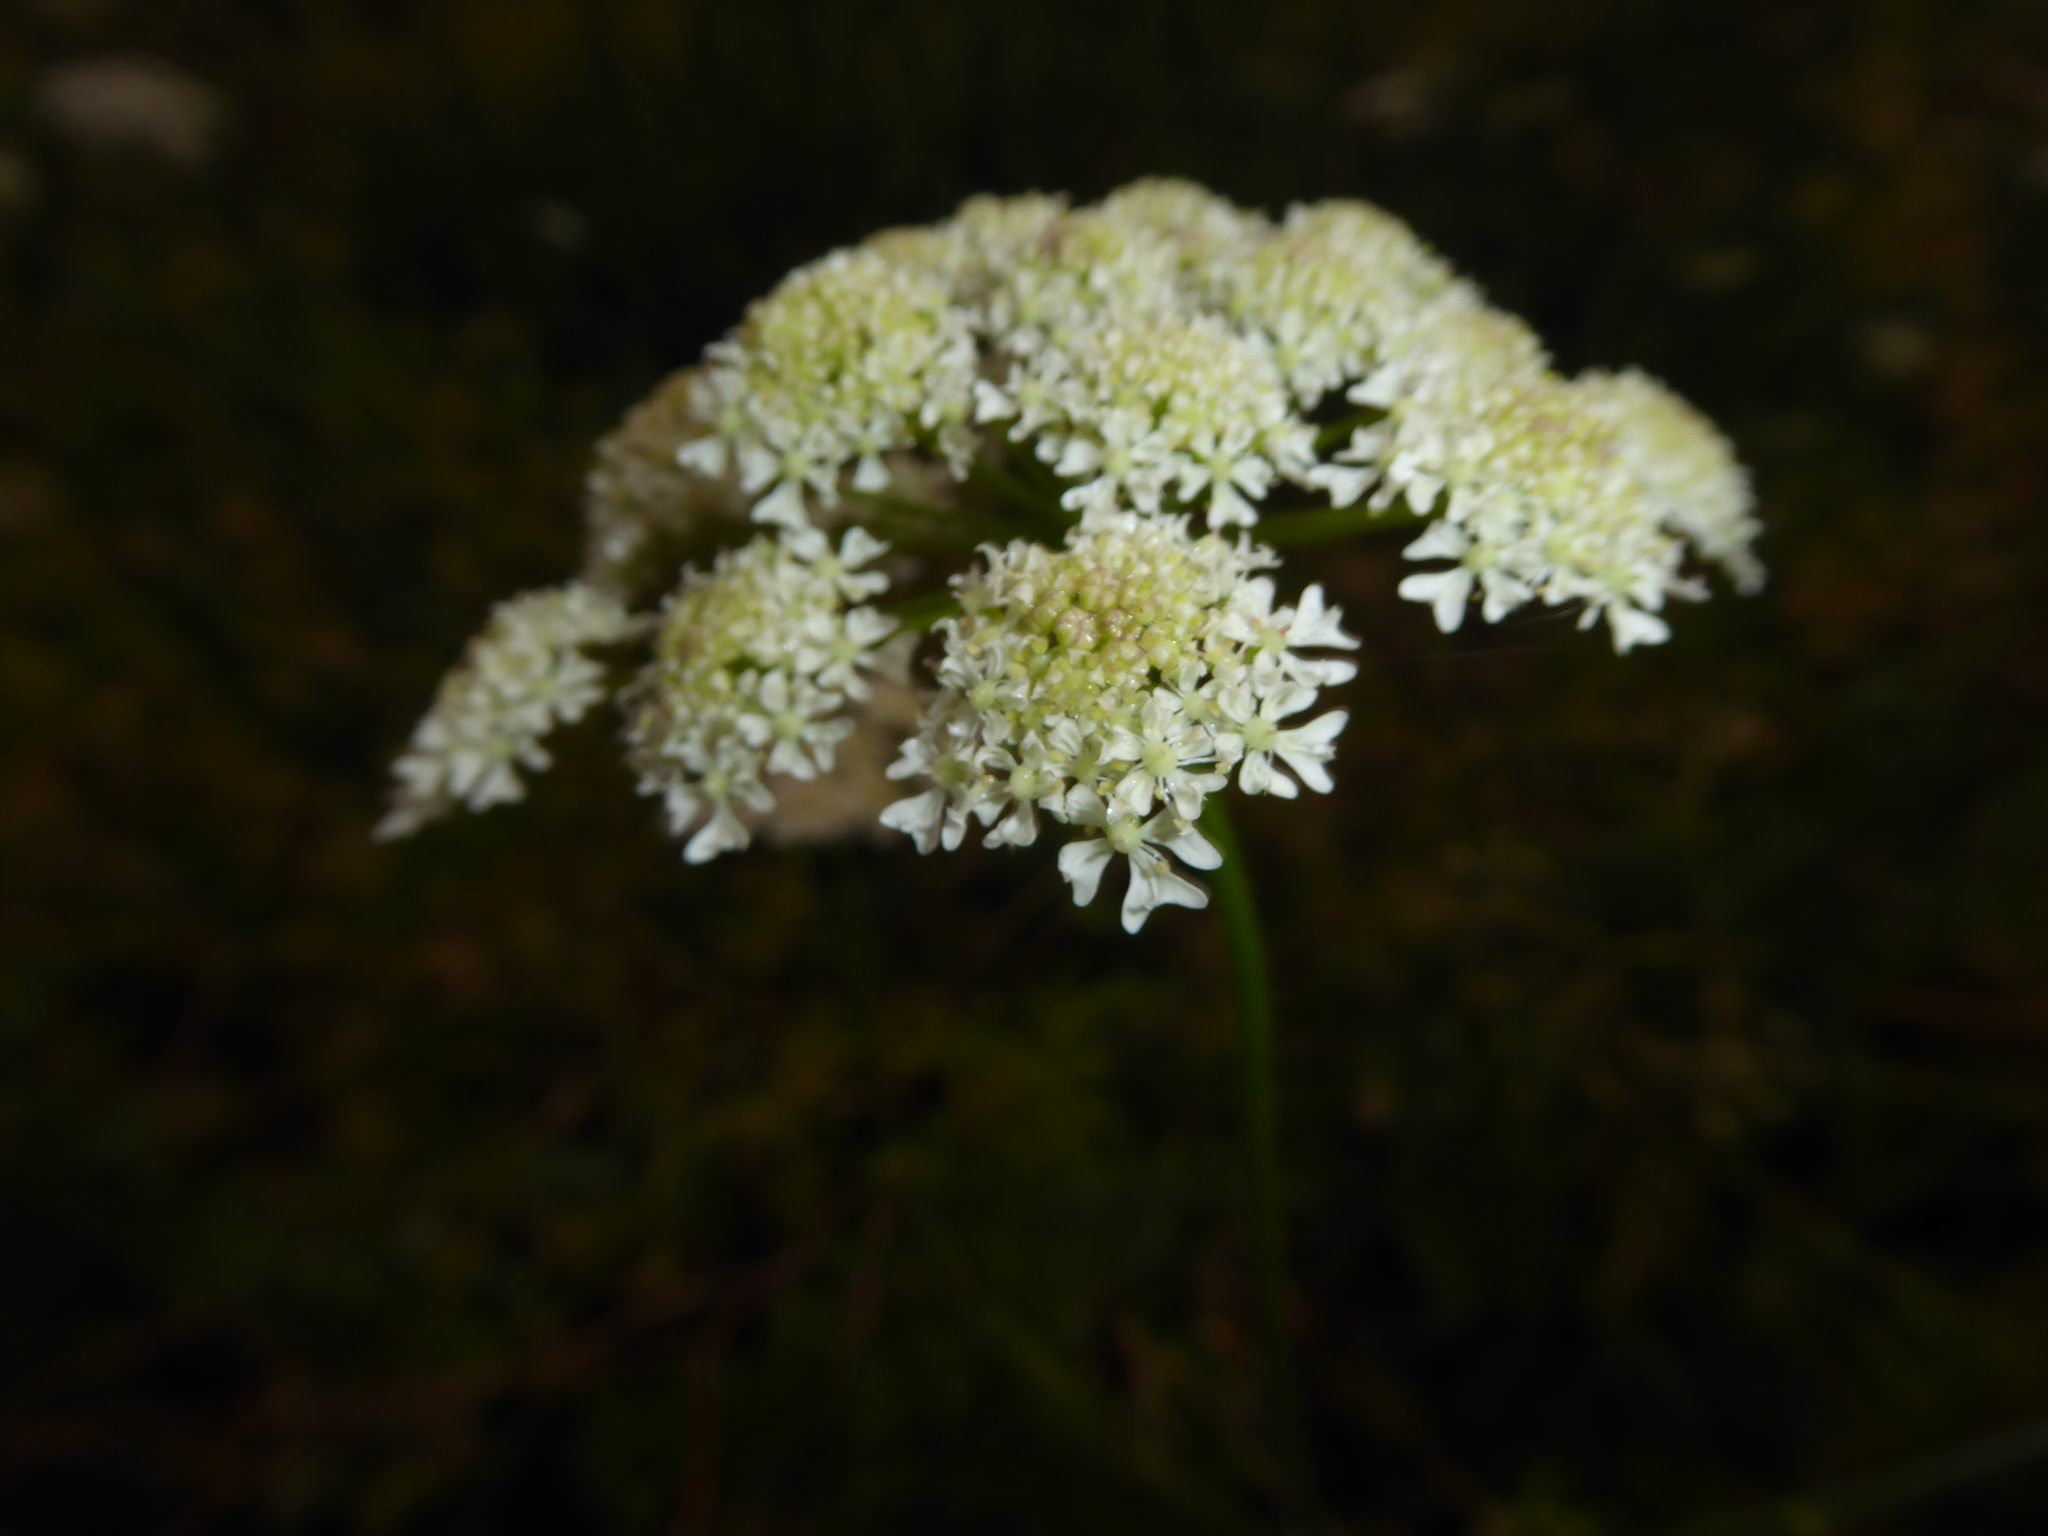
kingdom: Plantae
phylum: Tracheophyta
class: Magnoliopsida
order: Apiales
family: Apiaceae
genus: Heracleum
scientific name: Heracleum sphondylium
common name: Hogweed
